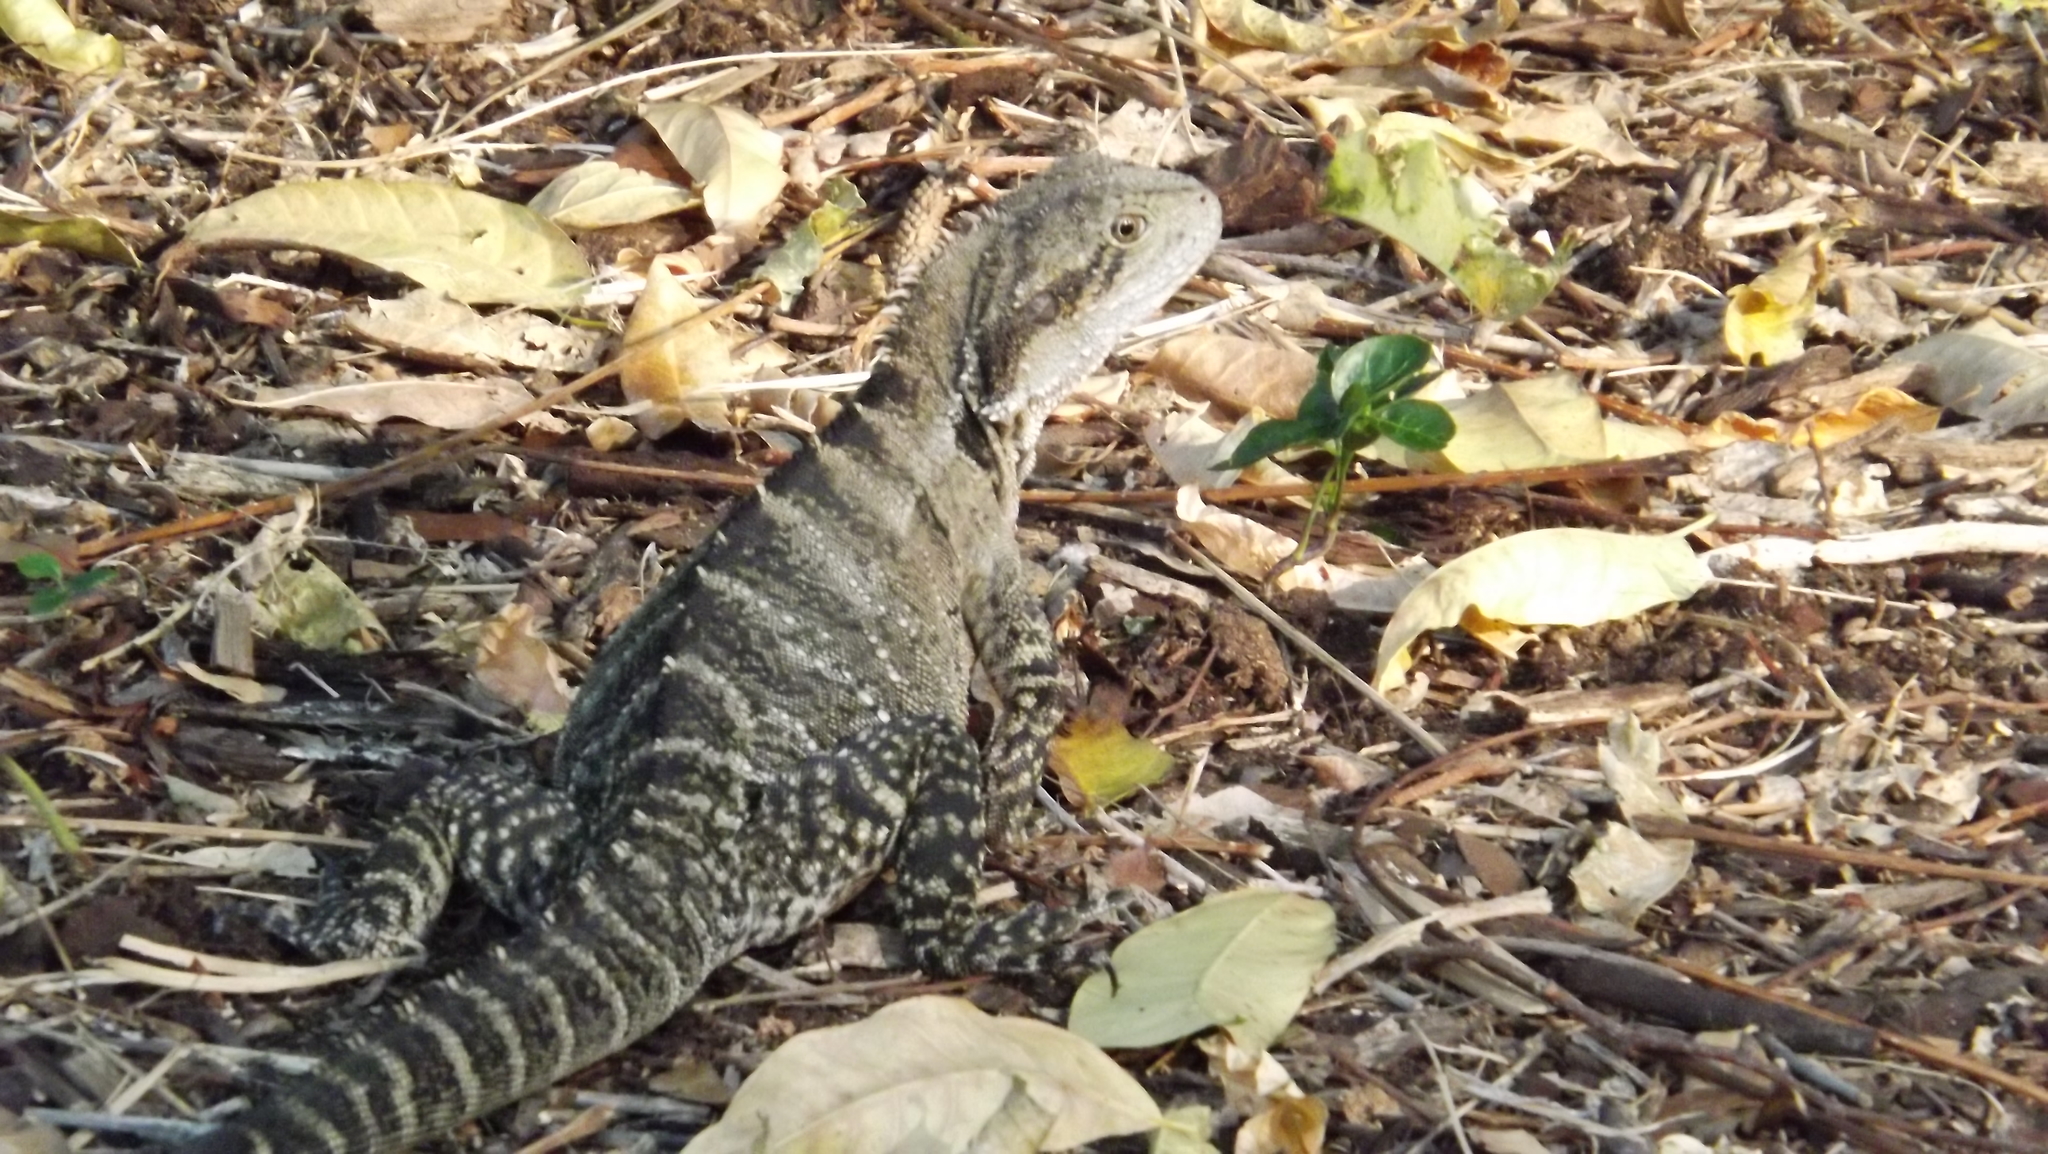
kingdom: Animalia
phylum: Chordata
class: Squamata
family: Agamidae
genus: Intellagama
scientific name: Intellagama lesueurii
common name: Eastern water dragon
